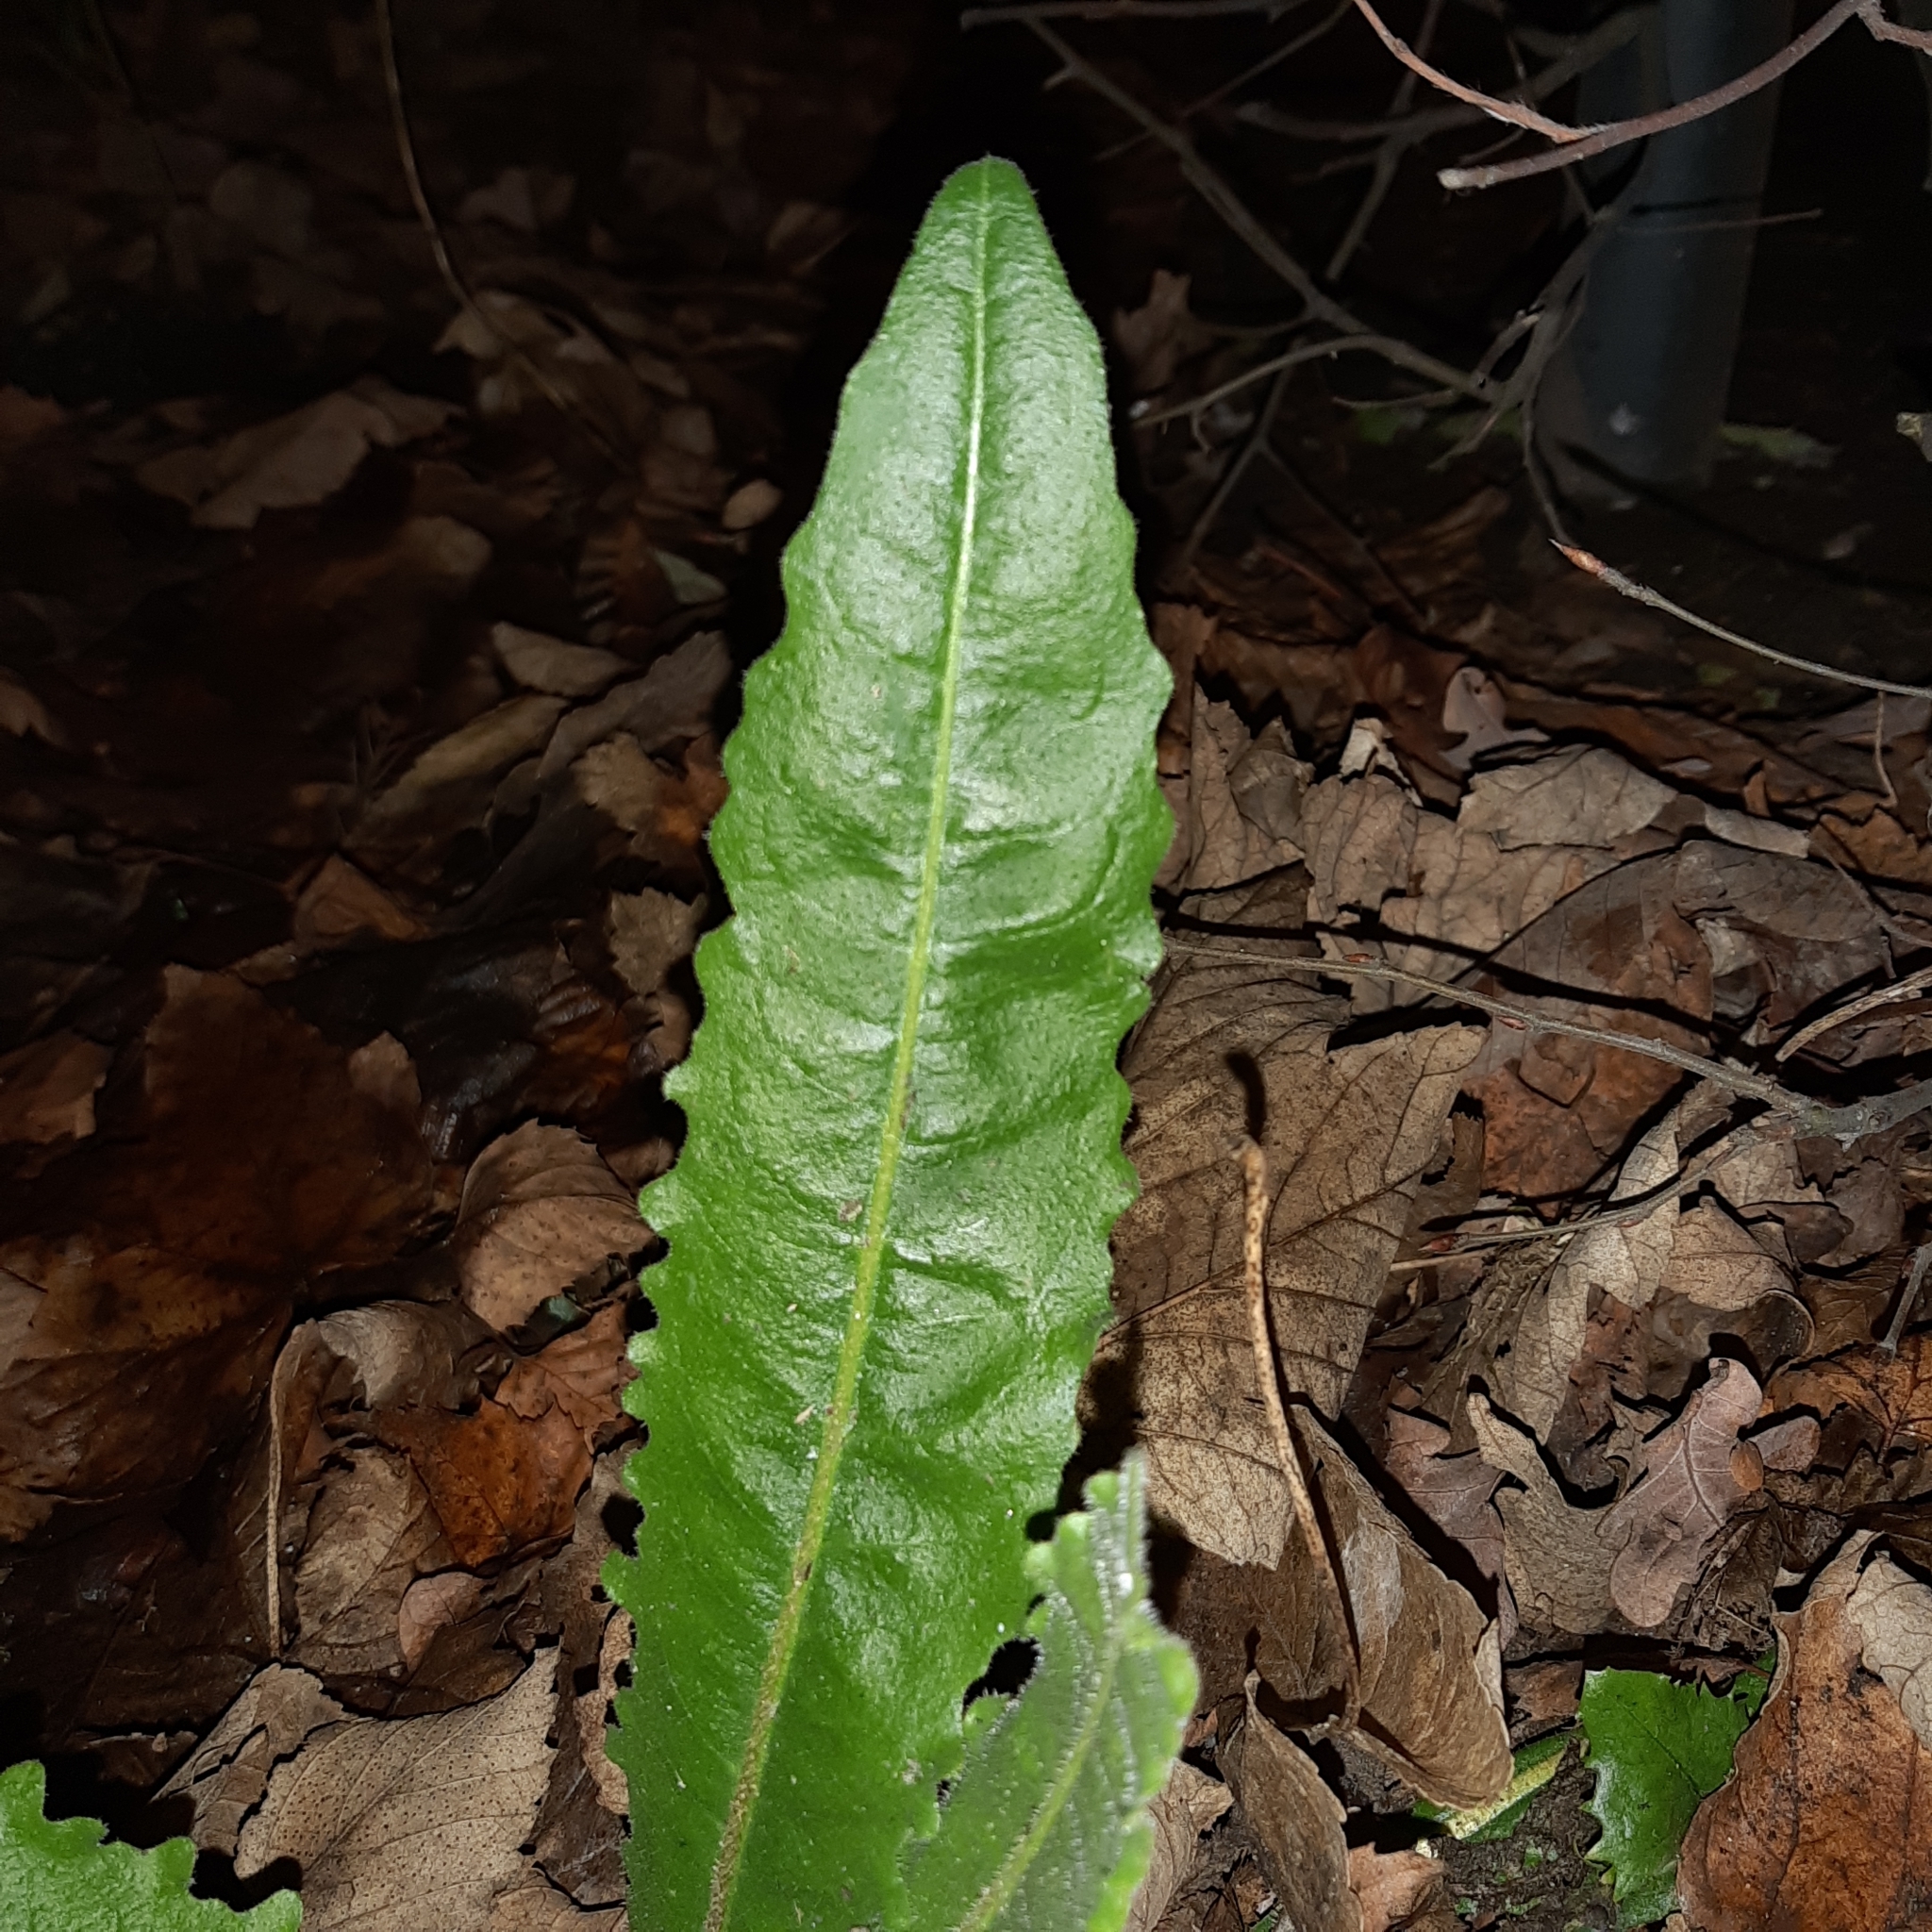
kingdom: Plantae
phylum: Tracheophyta
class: Magnoliopsida
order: Asterales
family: Asteraceae
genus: Hypochaeris
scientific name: Hypochaeris radicata
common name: Flatweed
